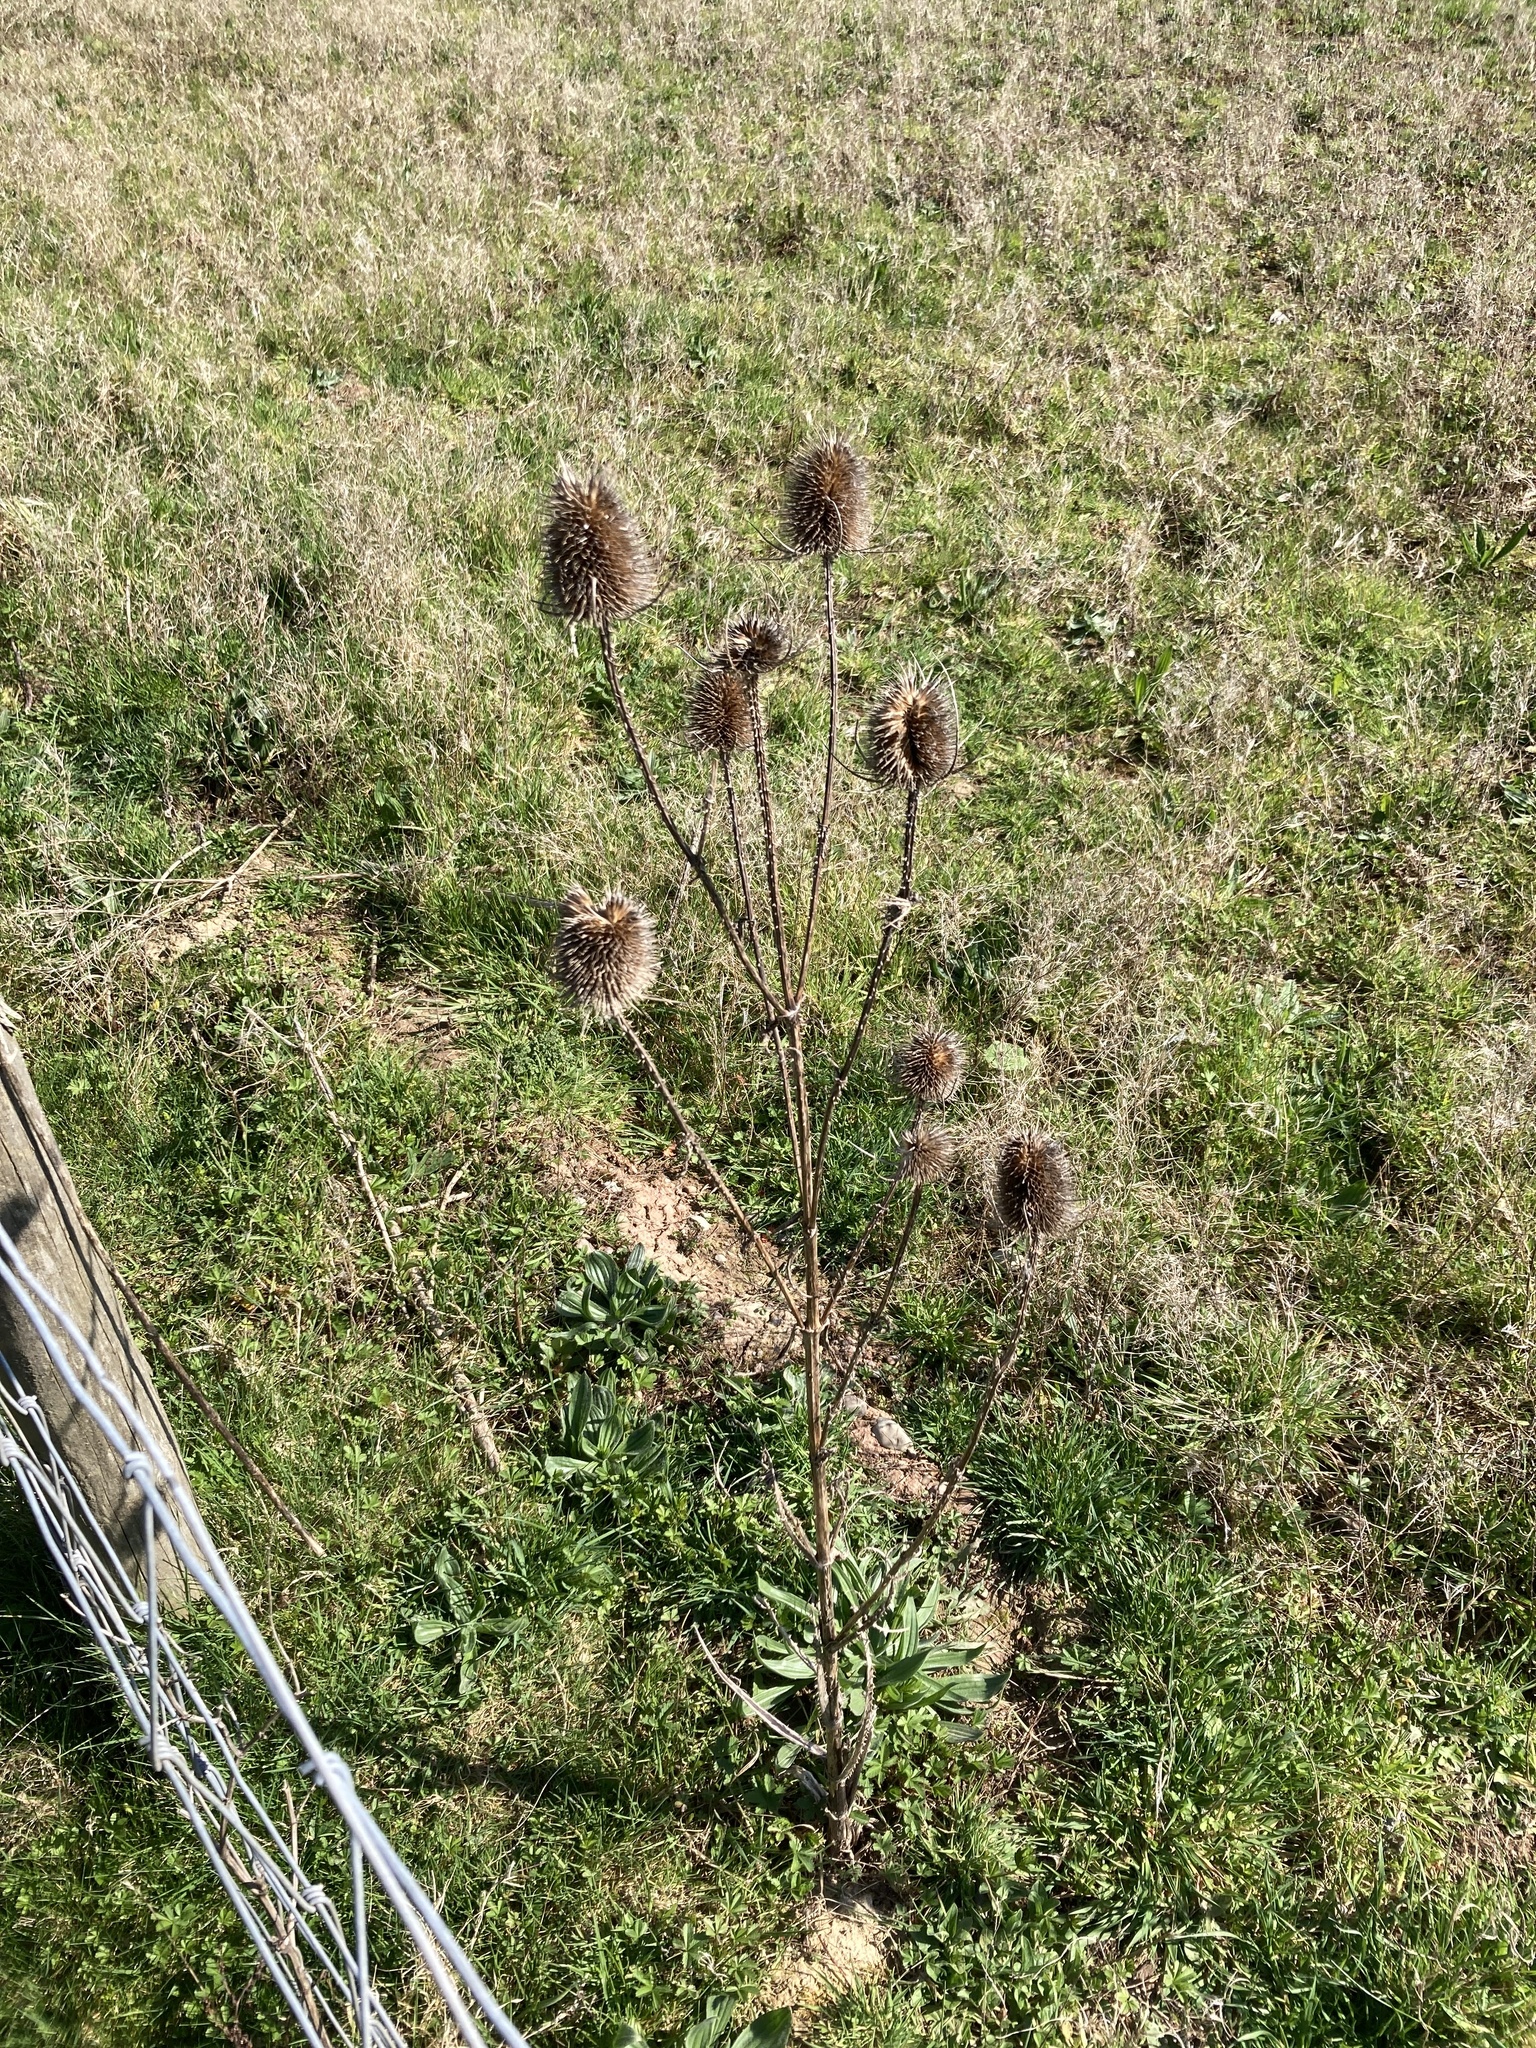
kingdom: Plantae
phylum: Tracheophyta
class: Magnoliopsida
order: Dipsacales
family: Caprifoliaceae
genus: Dipsacus
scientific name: Dipsacus fullonum
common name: Teasel
